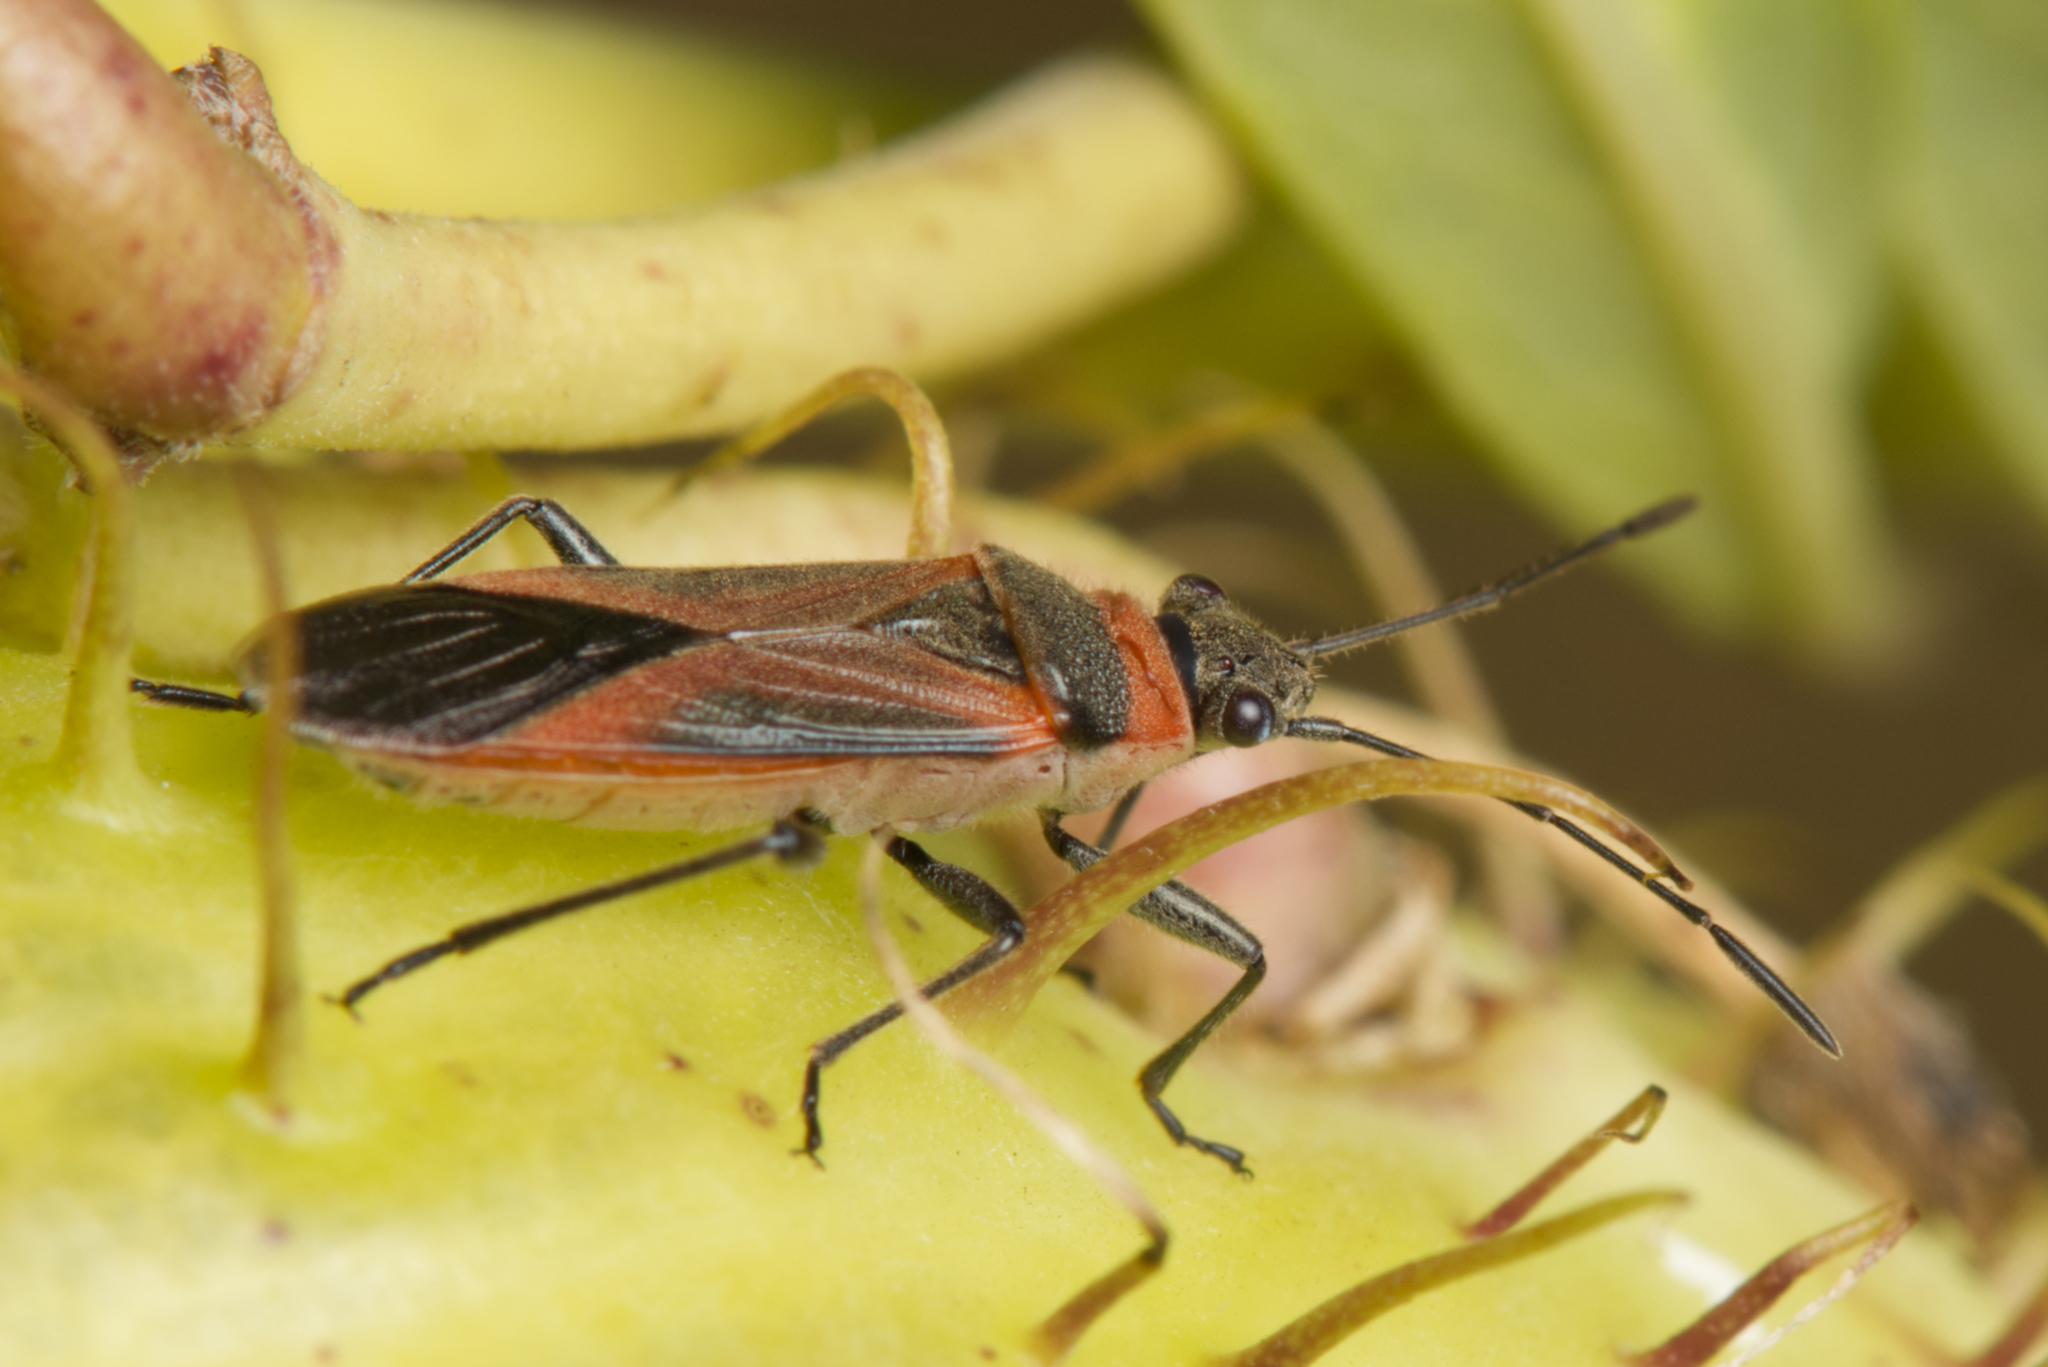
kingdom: Animalia
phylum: Arthropoda
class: Insecta
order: Hemiptera
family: Lygaeidae
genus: Arocatus
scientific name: Arocatus rusticus
